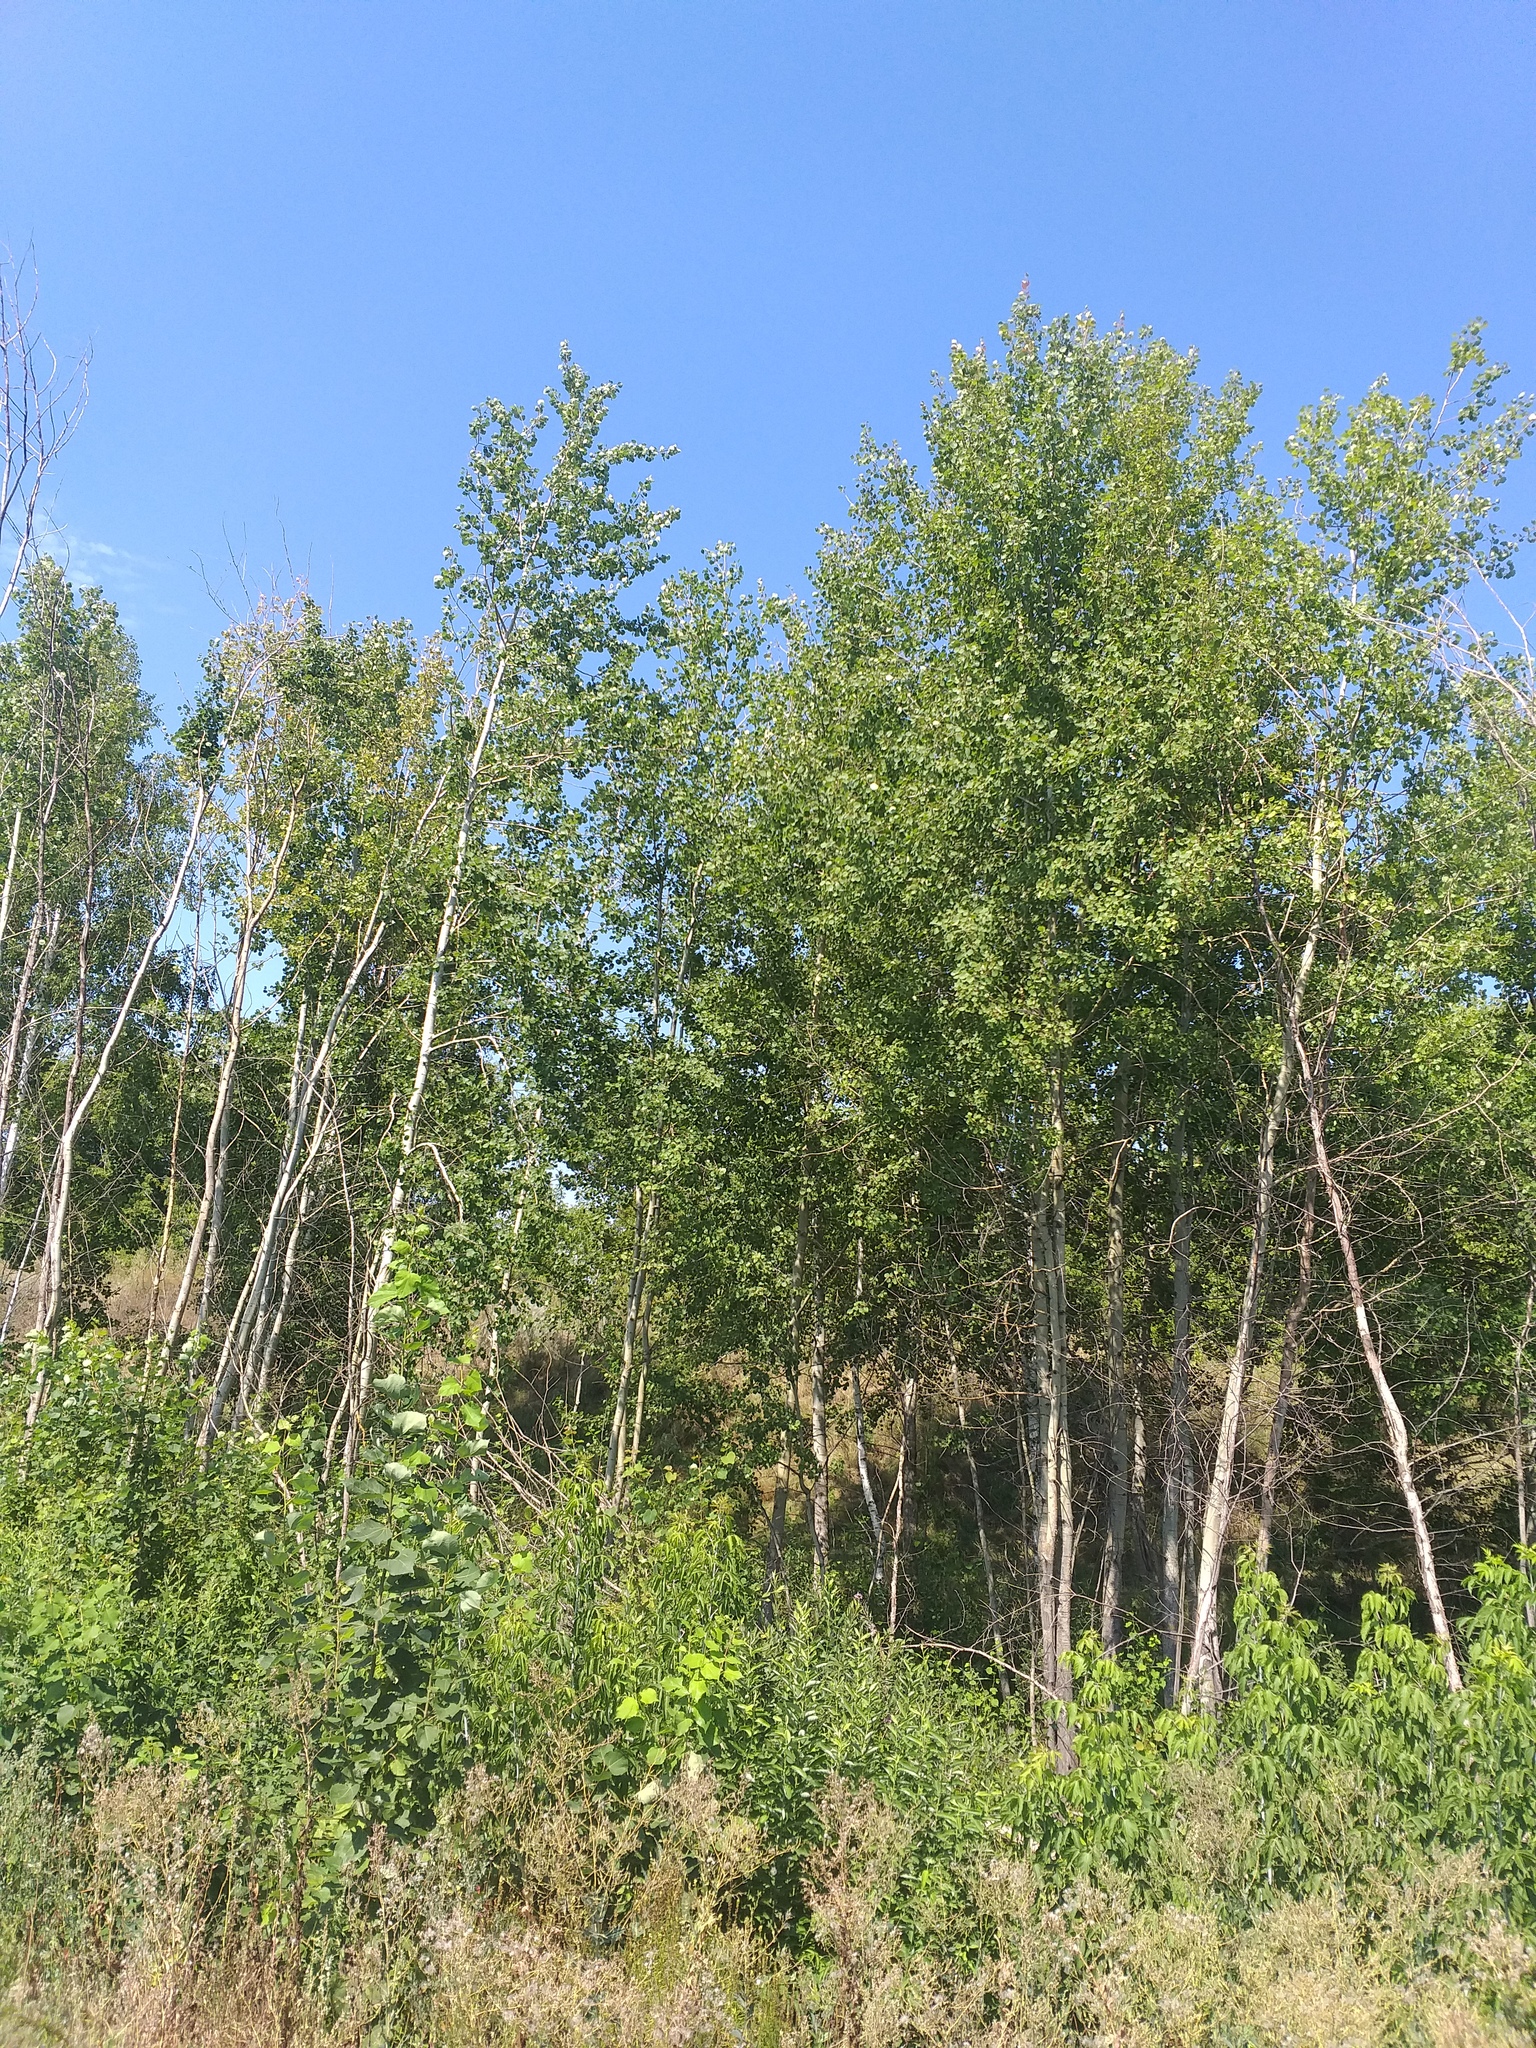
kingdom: Plantae
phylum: Tracheophyta
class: Magnoliopsida
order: Malpighiales
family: Salicaceae
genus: Populus
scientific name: Populus tremula
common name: European aspen
